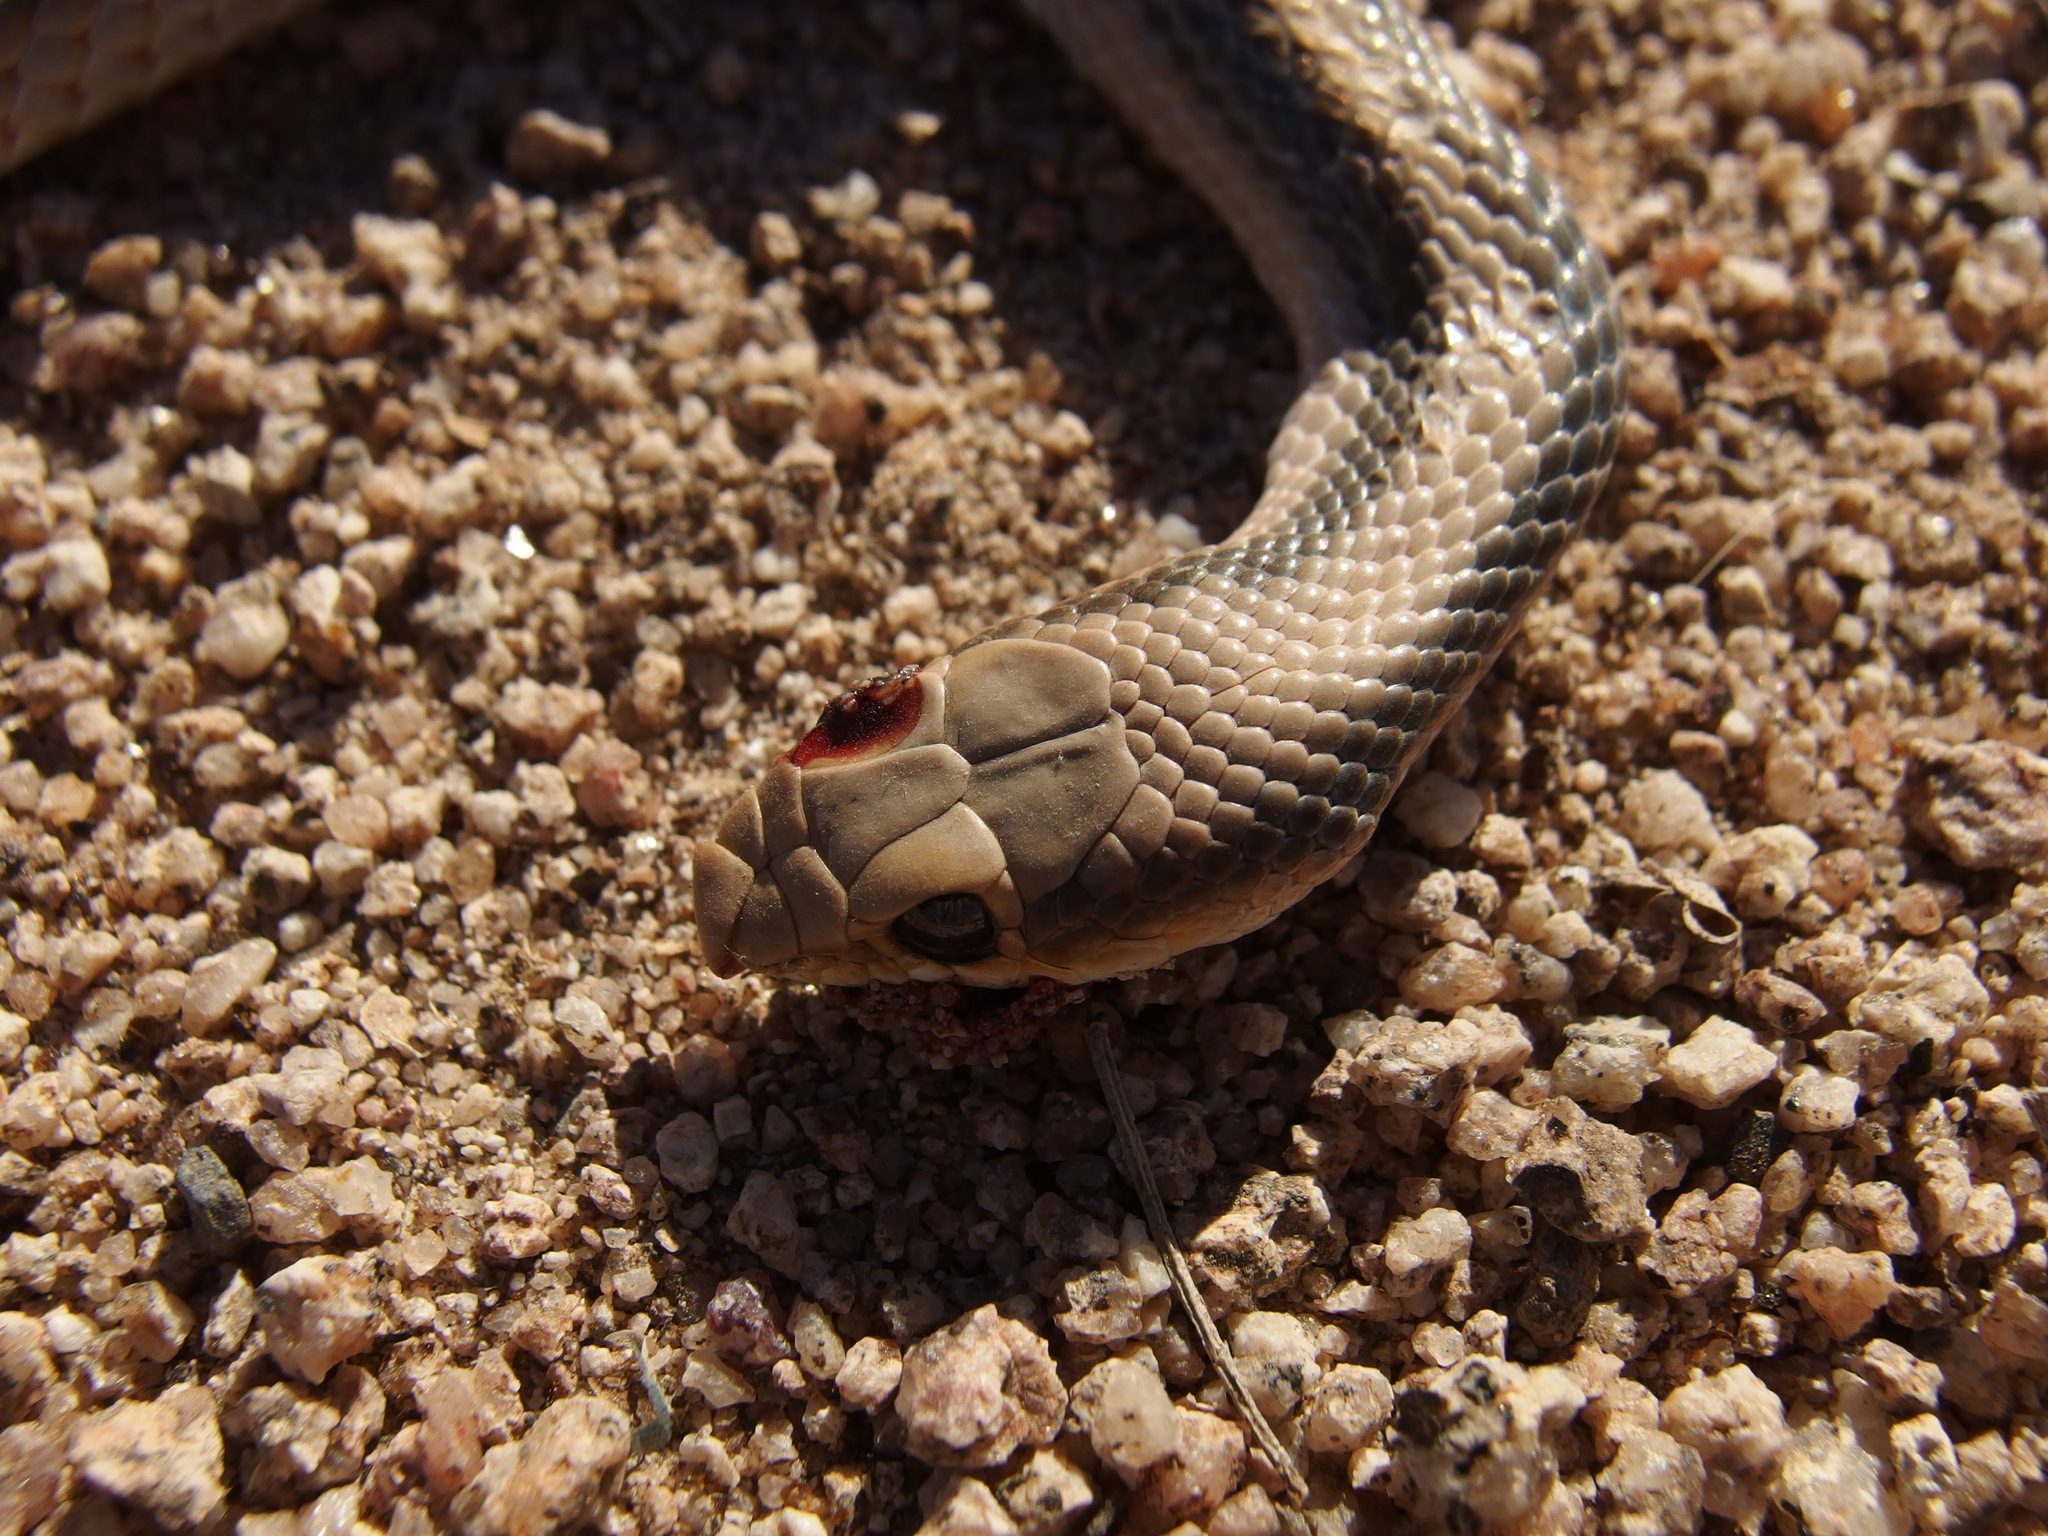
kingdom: Animalia
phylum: Chordata
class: Squamata
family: Colubridae
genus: Salvadora
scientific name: Salvadora deserticola
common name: Big bend patchnose snake
